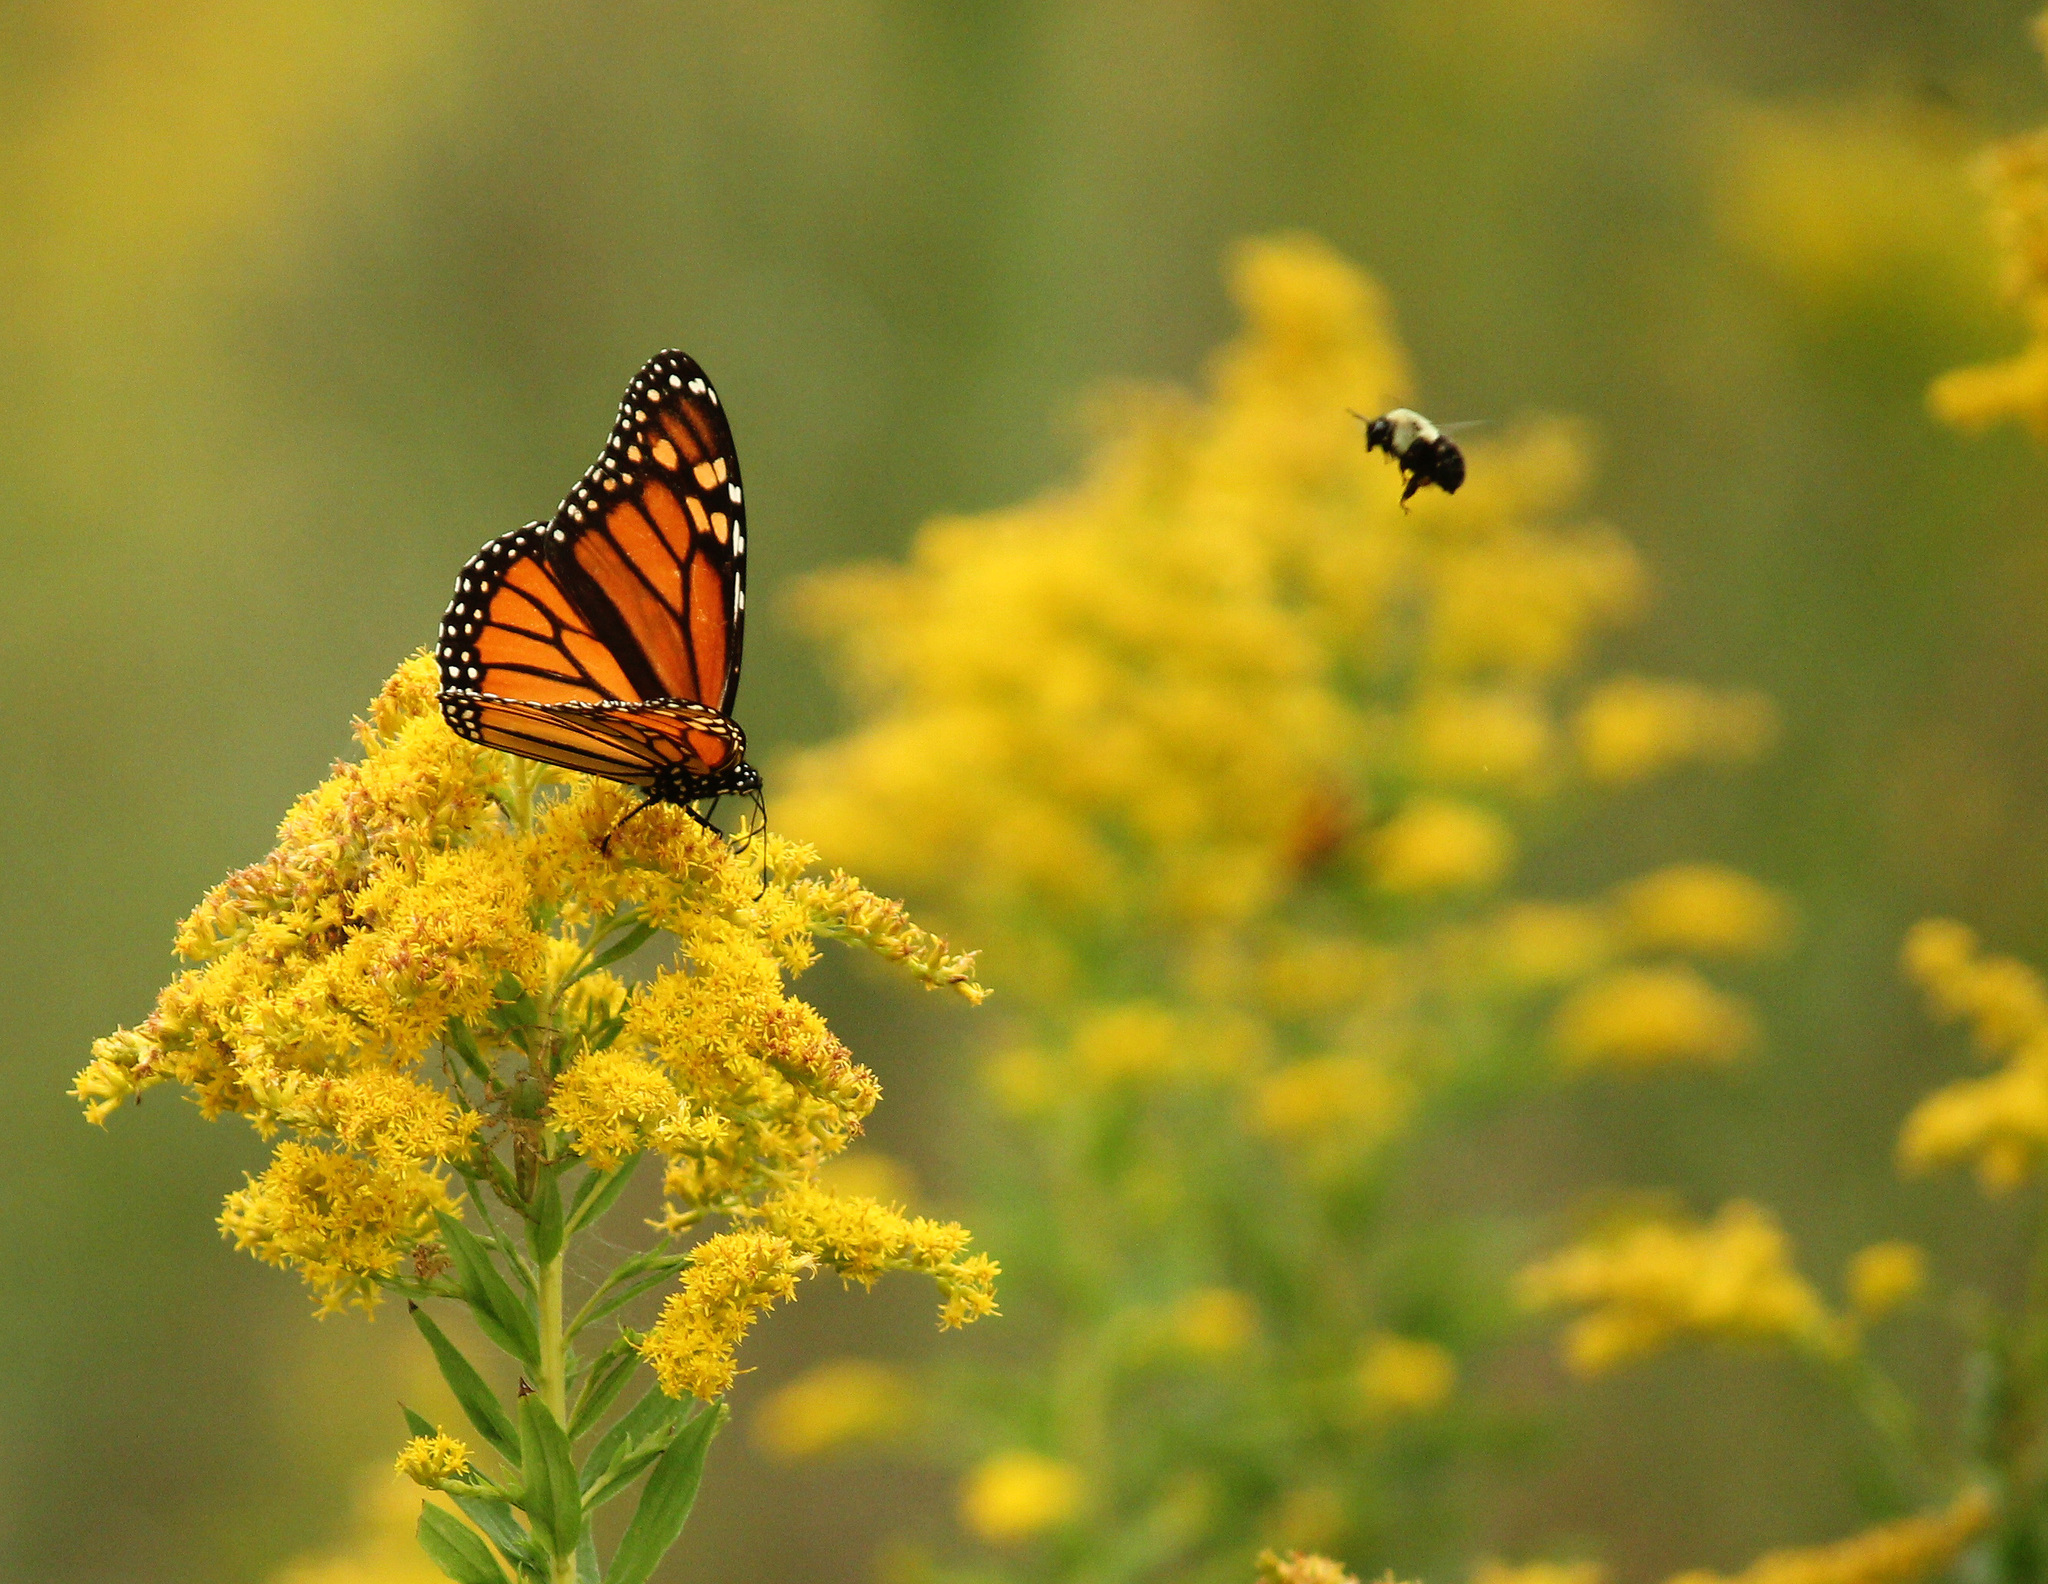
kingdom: Animalia
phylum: Arthropoda
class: Insecta
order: Lepidoptera
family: Nymphalidae
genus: Danaus
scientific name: Danaus plexippus
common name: Monarch
